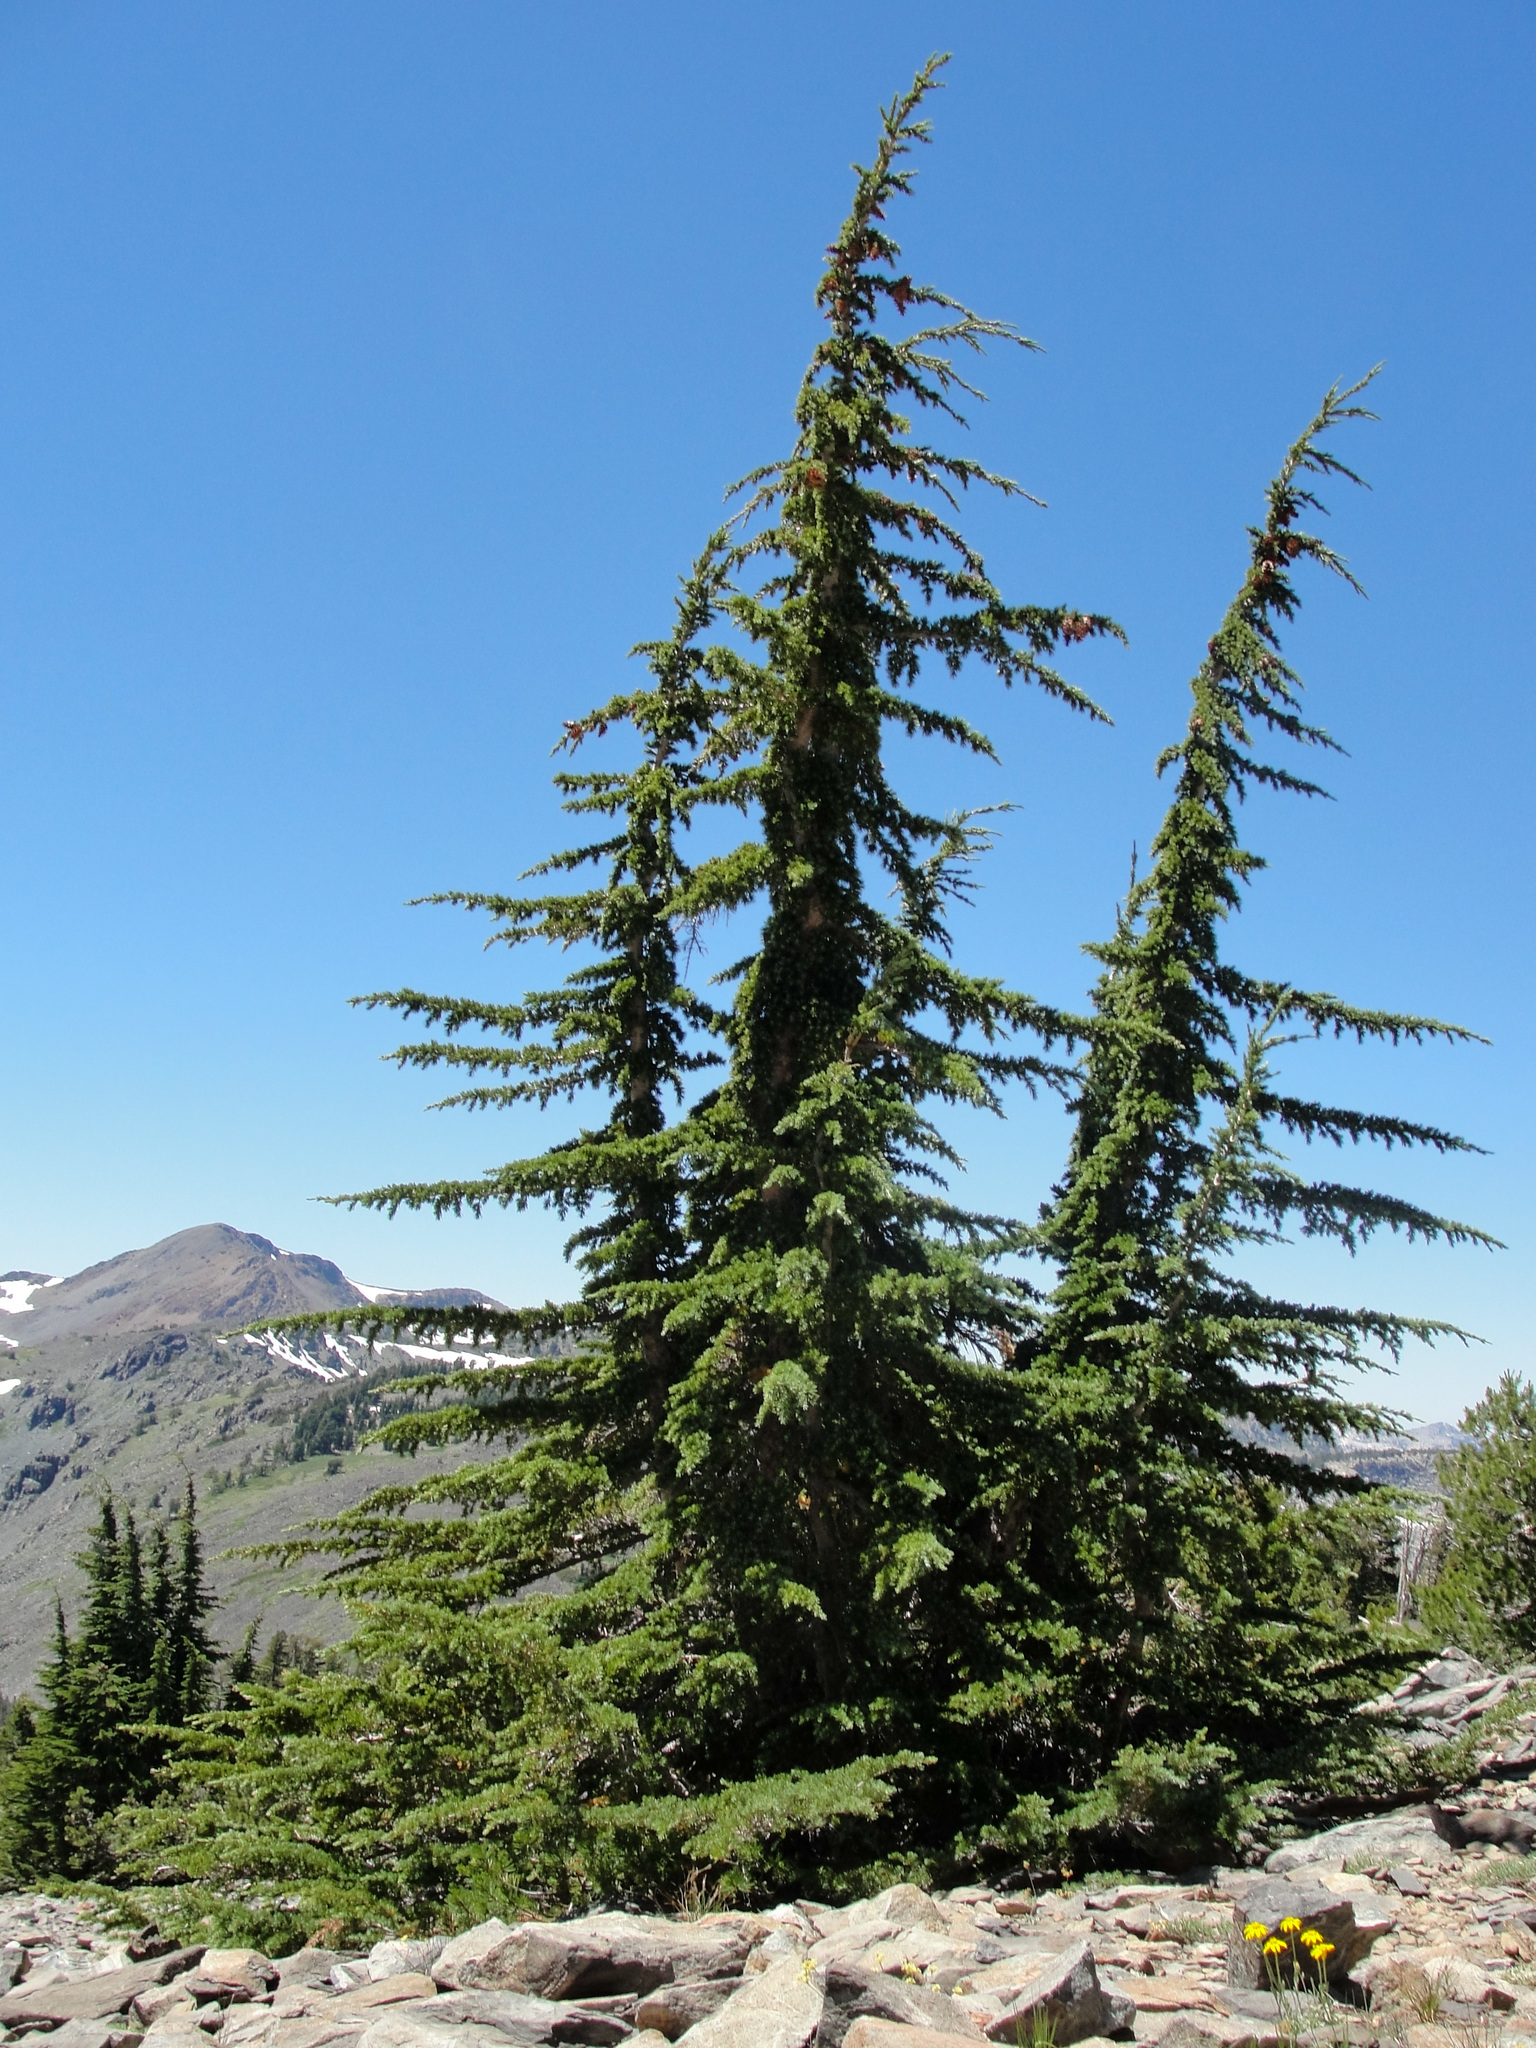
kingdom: Plantae
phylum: Tracheophyta
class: Pinopsida
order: Pinales
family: Pinaceae
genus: Tsuga
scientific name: Tsuga mertensiana
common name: Mountain hemlock
